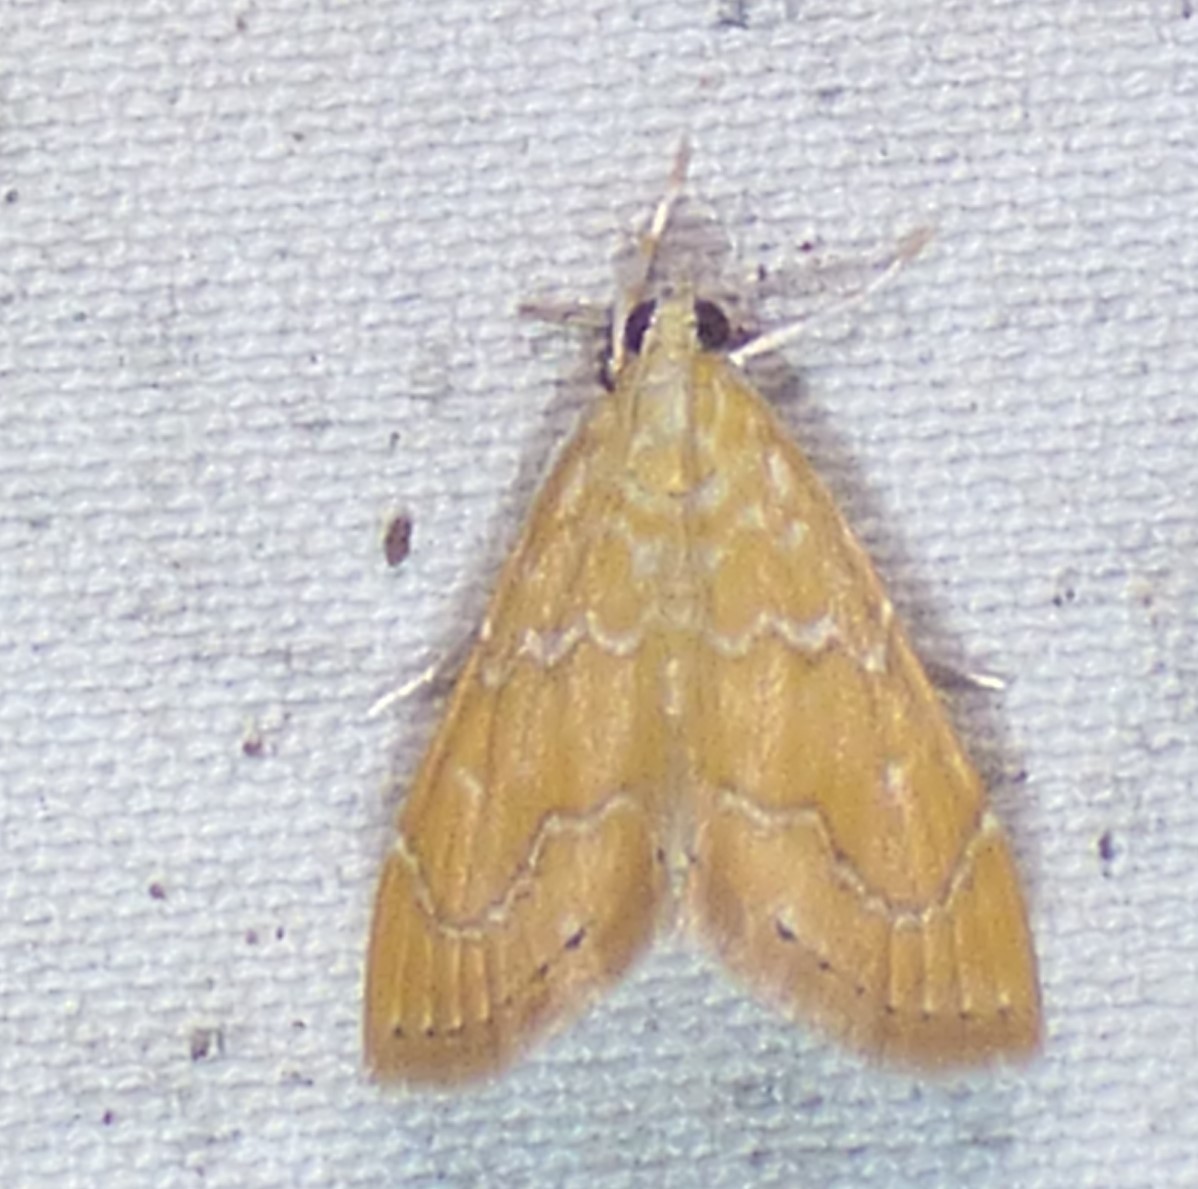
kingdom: Animalia
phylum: Arthropoda
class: Insecta
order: Lepidoptera
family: Crambidae
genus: Glaphyria
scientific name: Glaphyria sesquistrialis
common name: White-roped glaphyria
